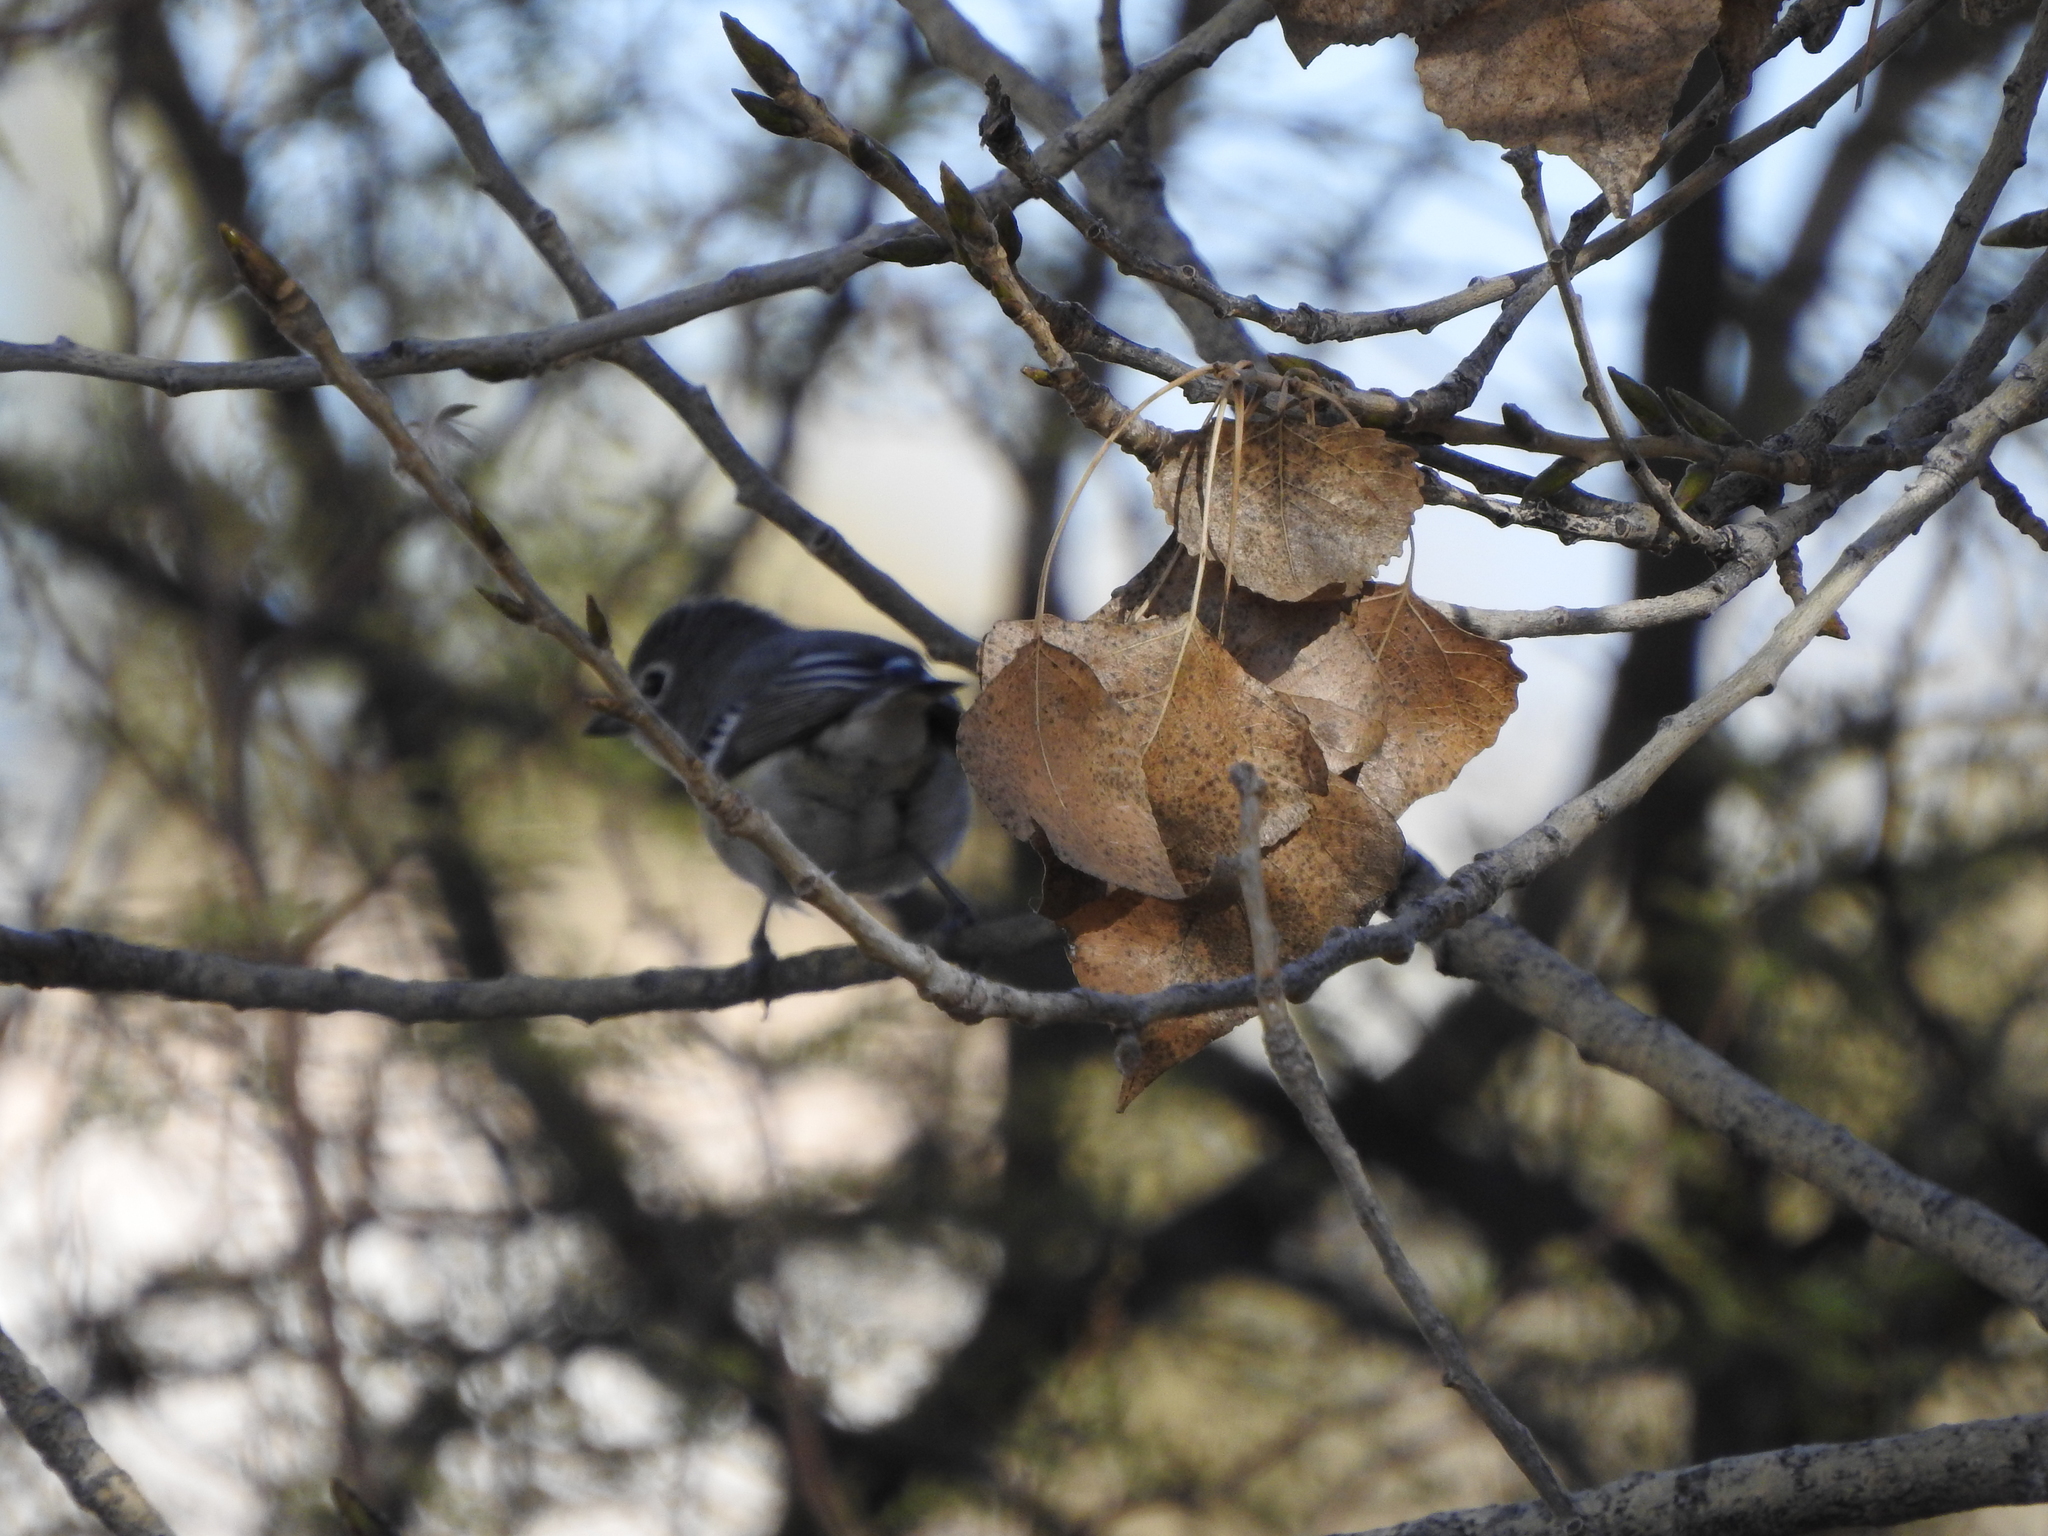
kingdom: Animalia
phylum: Chordata
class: Aves
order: Passeriformes
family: Vireonidae
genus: Vireo
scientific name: Vireo plumbeus
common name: Plumbeous vireo
